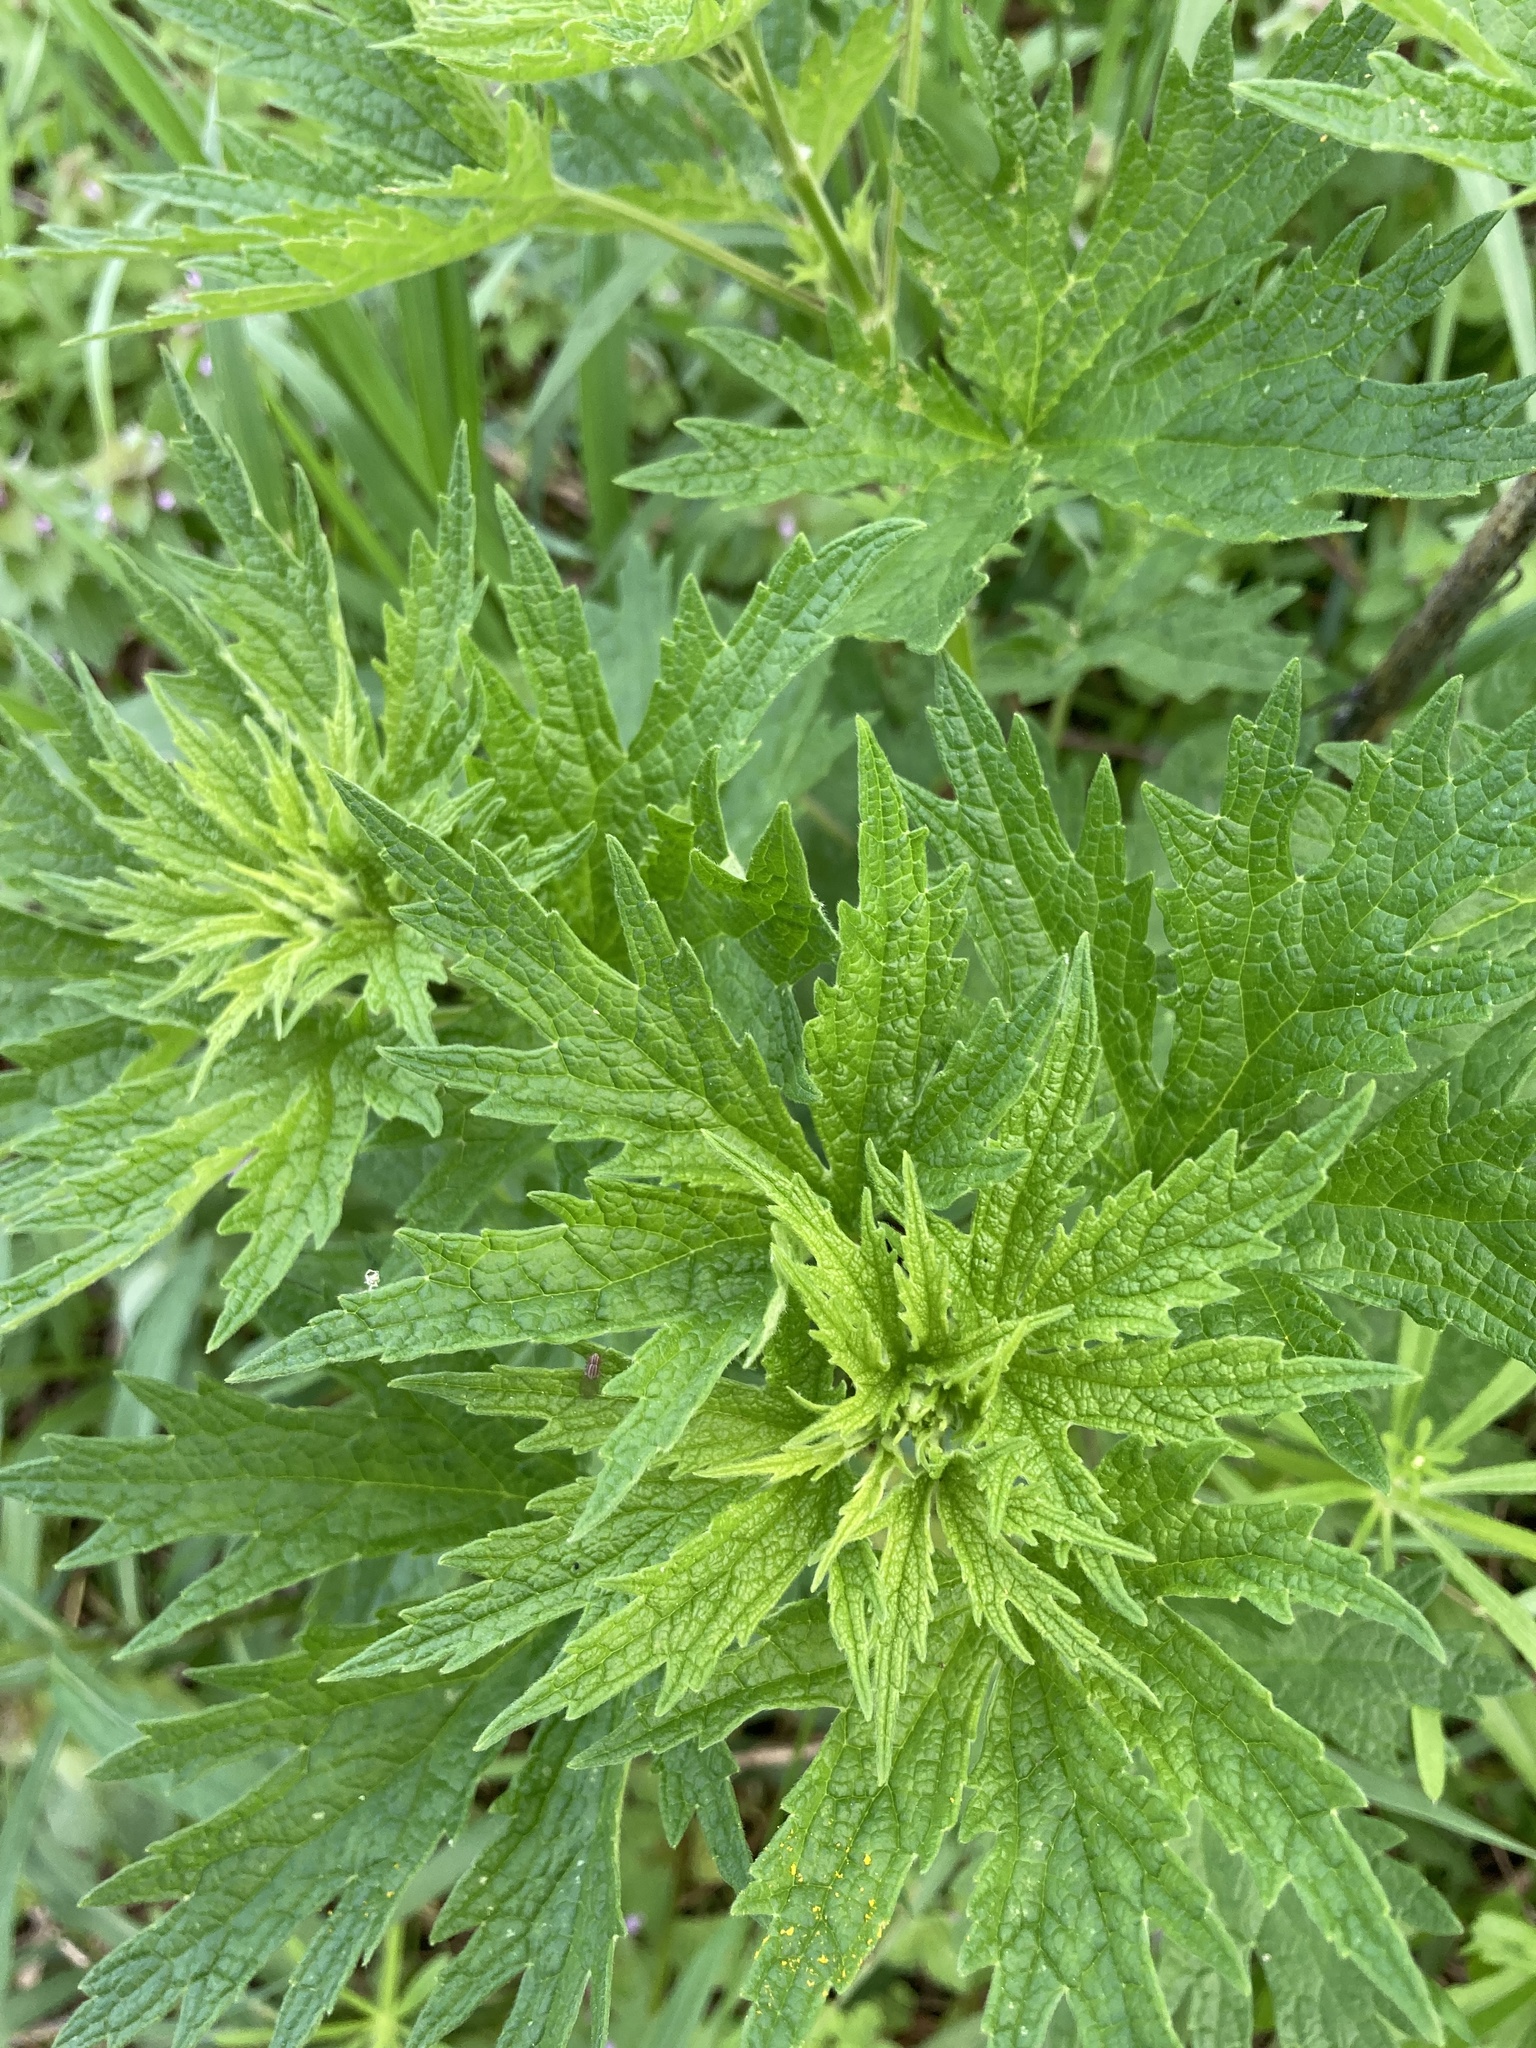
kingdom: Plantae
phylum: Tracheophyta
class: Magnoliopsida
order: Lamiales
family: Lamiaceae
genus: Leonurus
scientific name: Leonurus cardiaca
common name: Motherwort
